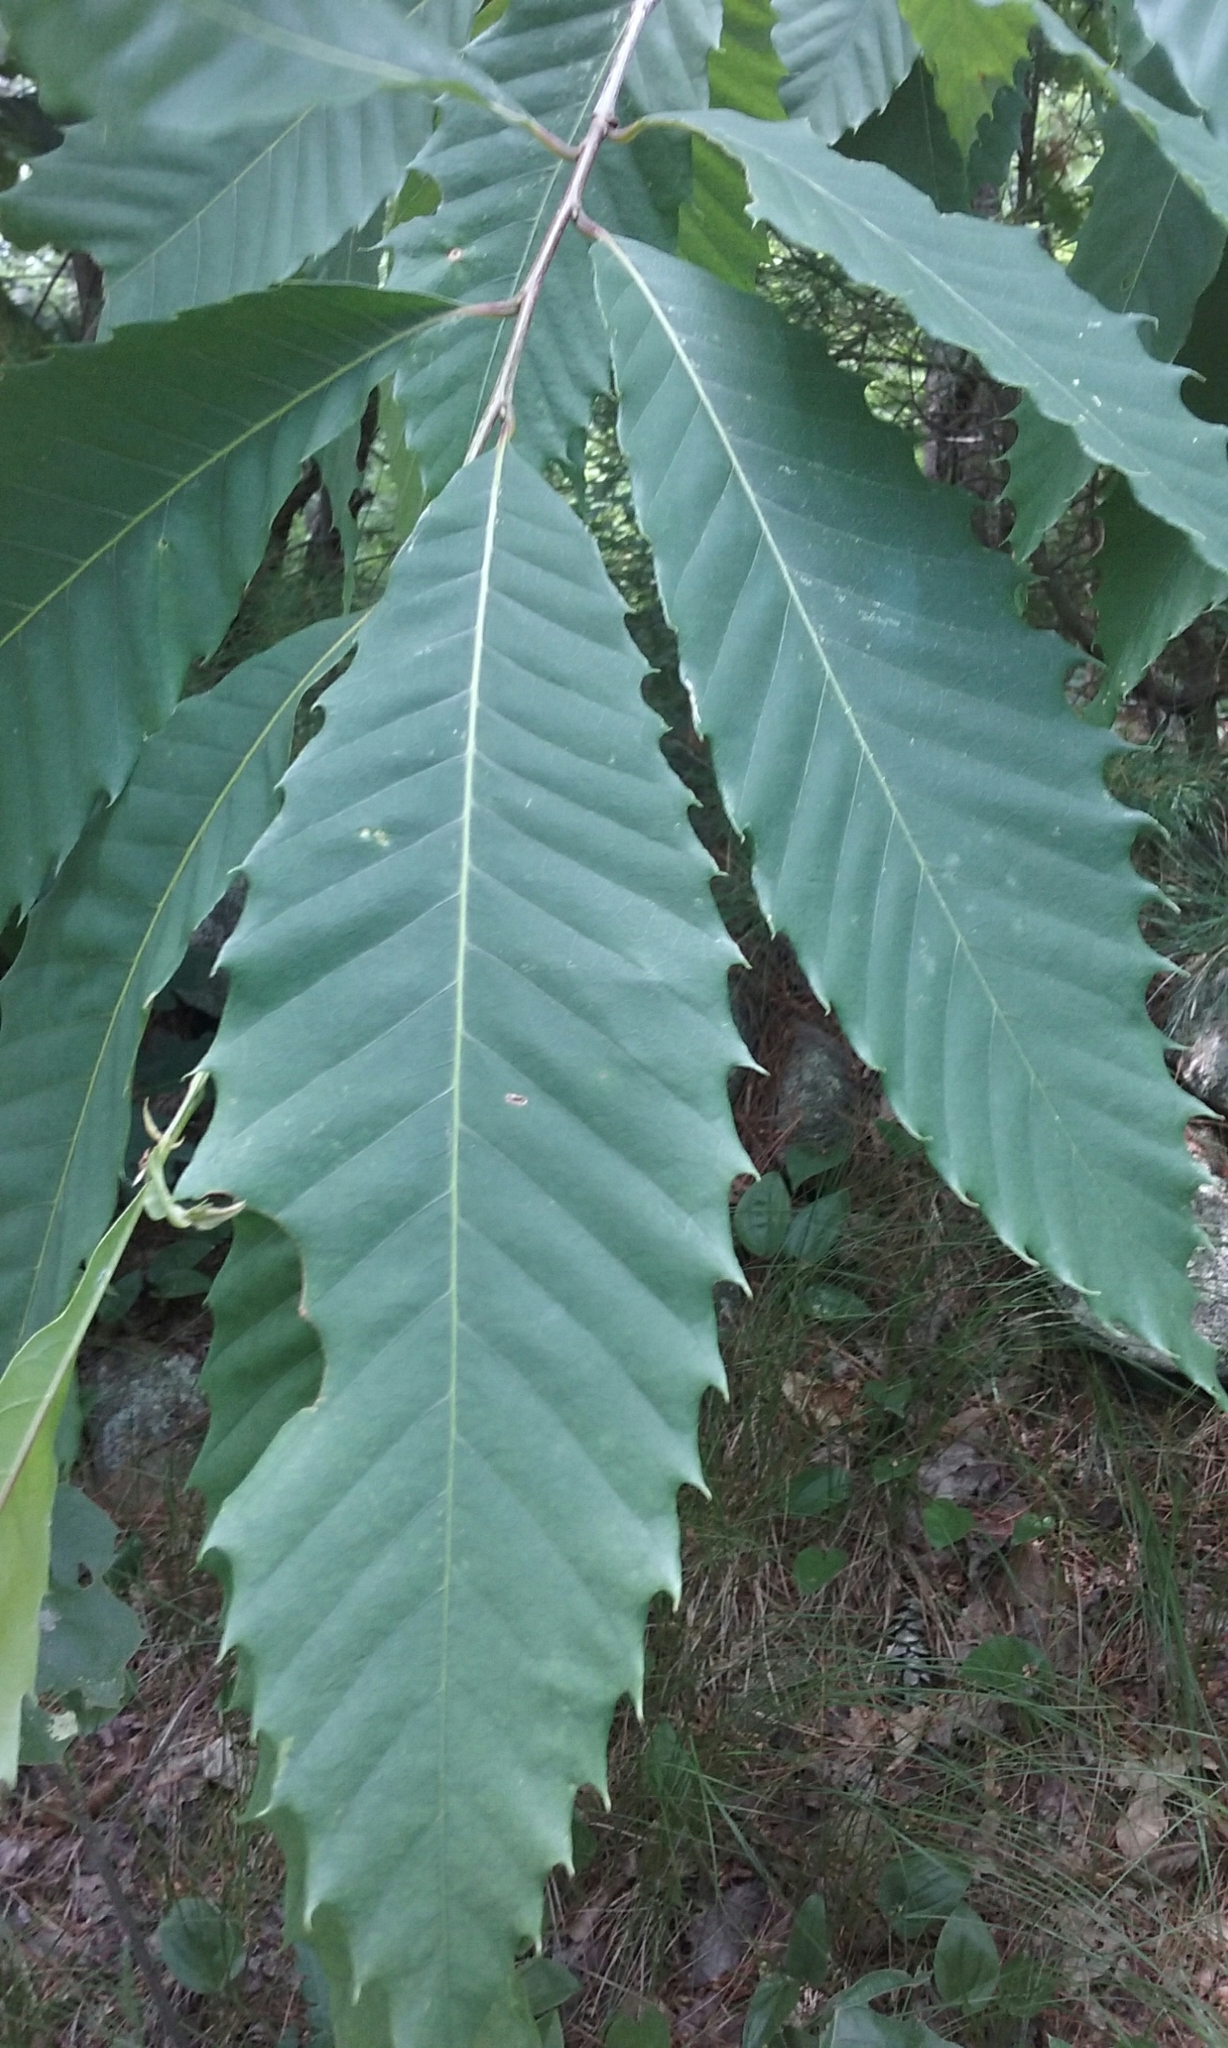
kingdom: Plantae
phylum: Tracheophyta
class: Magnoliopsida
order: Fagales
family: Fagaceae
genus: Castanea
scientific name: Castanea dentata
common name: American chestnut
